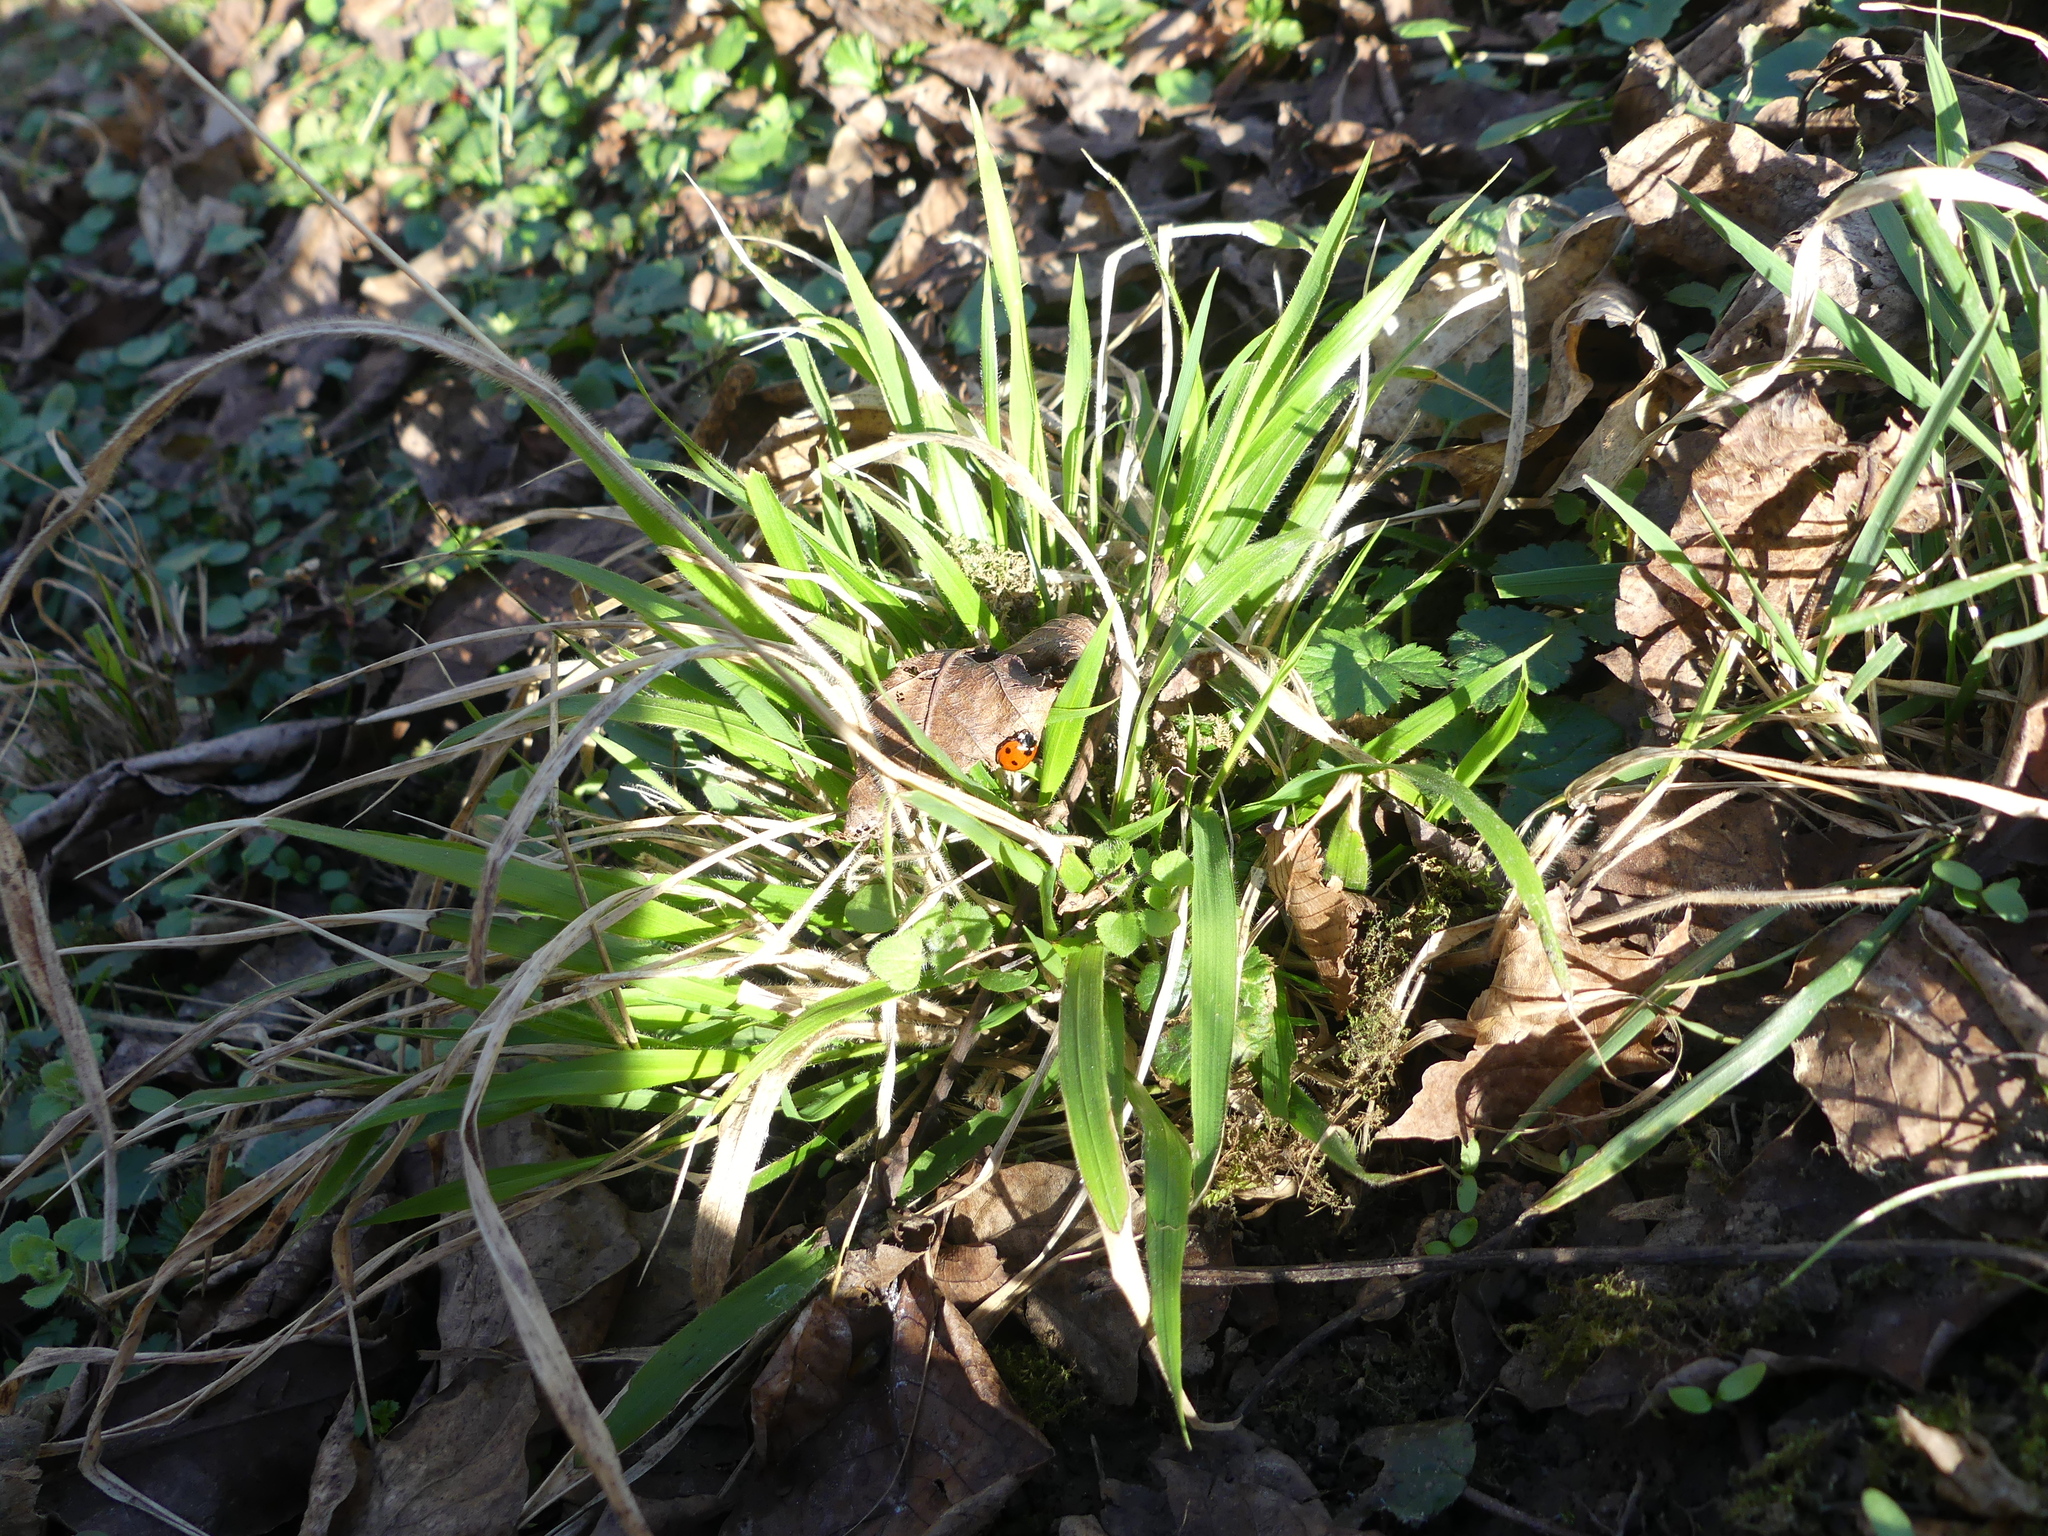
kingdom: Plantae
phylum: Tracheophyta
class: Liliopsida
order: Poales
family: Poaceae
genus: Brachypodium
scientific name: Brachypodium sylvaticum
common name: False-brome
